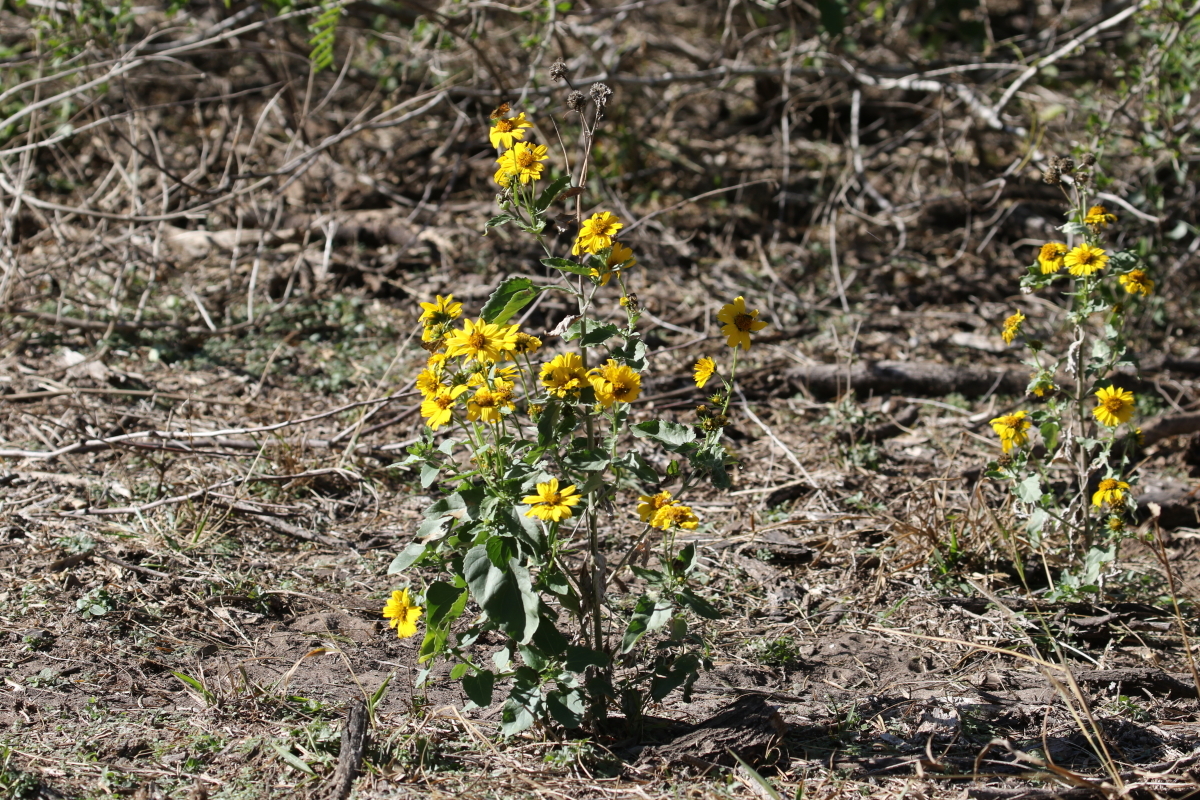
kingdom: Plantae
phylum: Tracheophyta
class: Magnoliopsida
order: Asterales
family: Asteraceae
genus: Verbesina
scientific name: Verbesina encelioides
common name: Golden crownbeard
